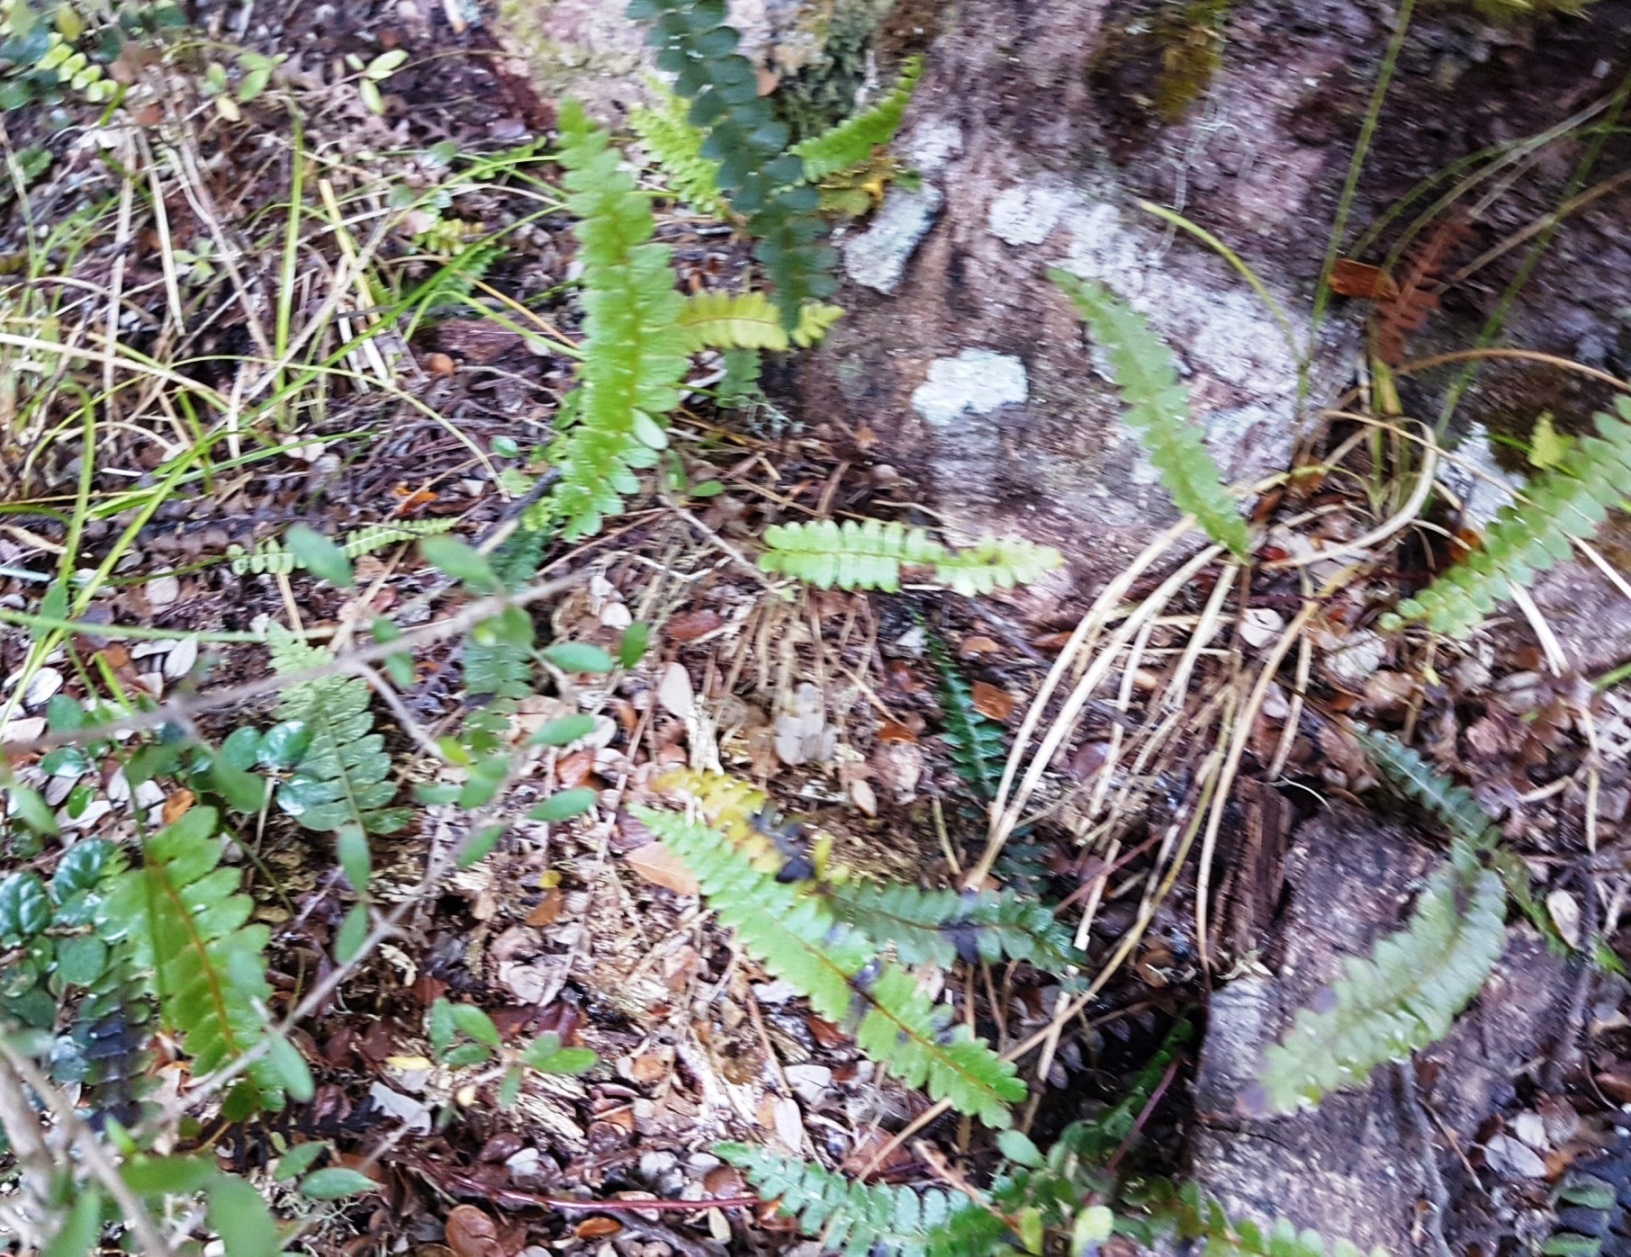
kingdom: Plantae
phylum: Tracheophyta
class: Polypodiopsida
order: Polypodiales
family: Blechnaceae
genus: Austroblechnum
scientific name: Austroblechnum penna-marina
